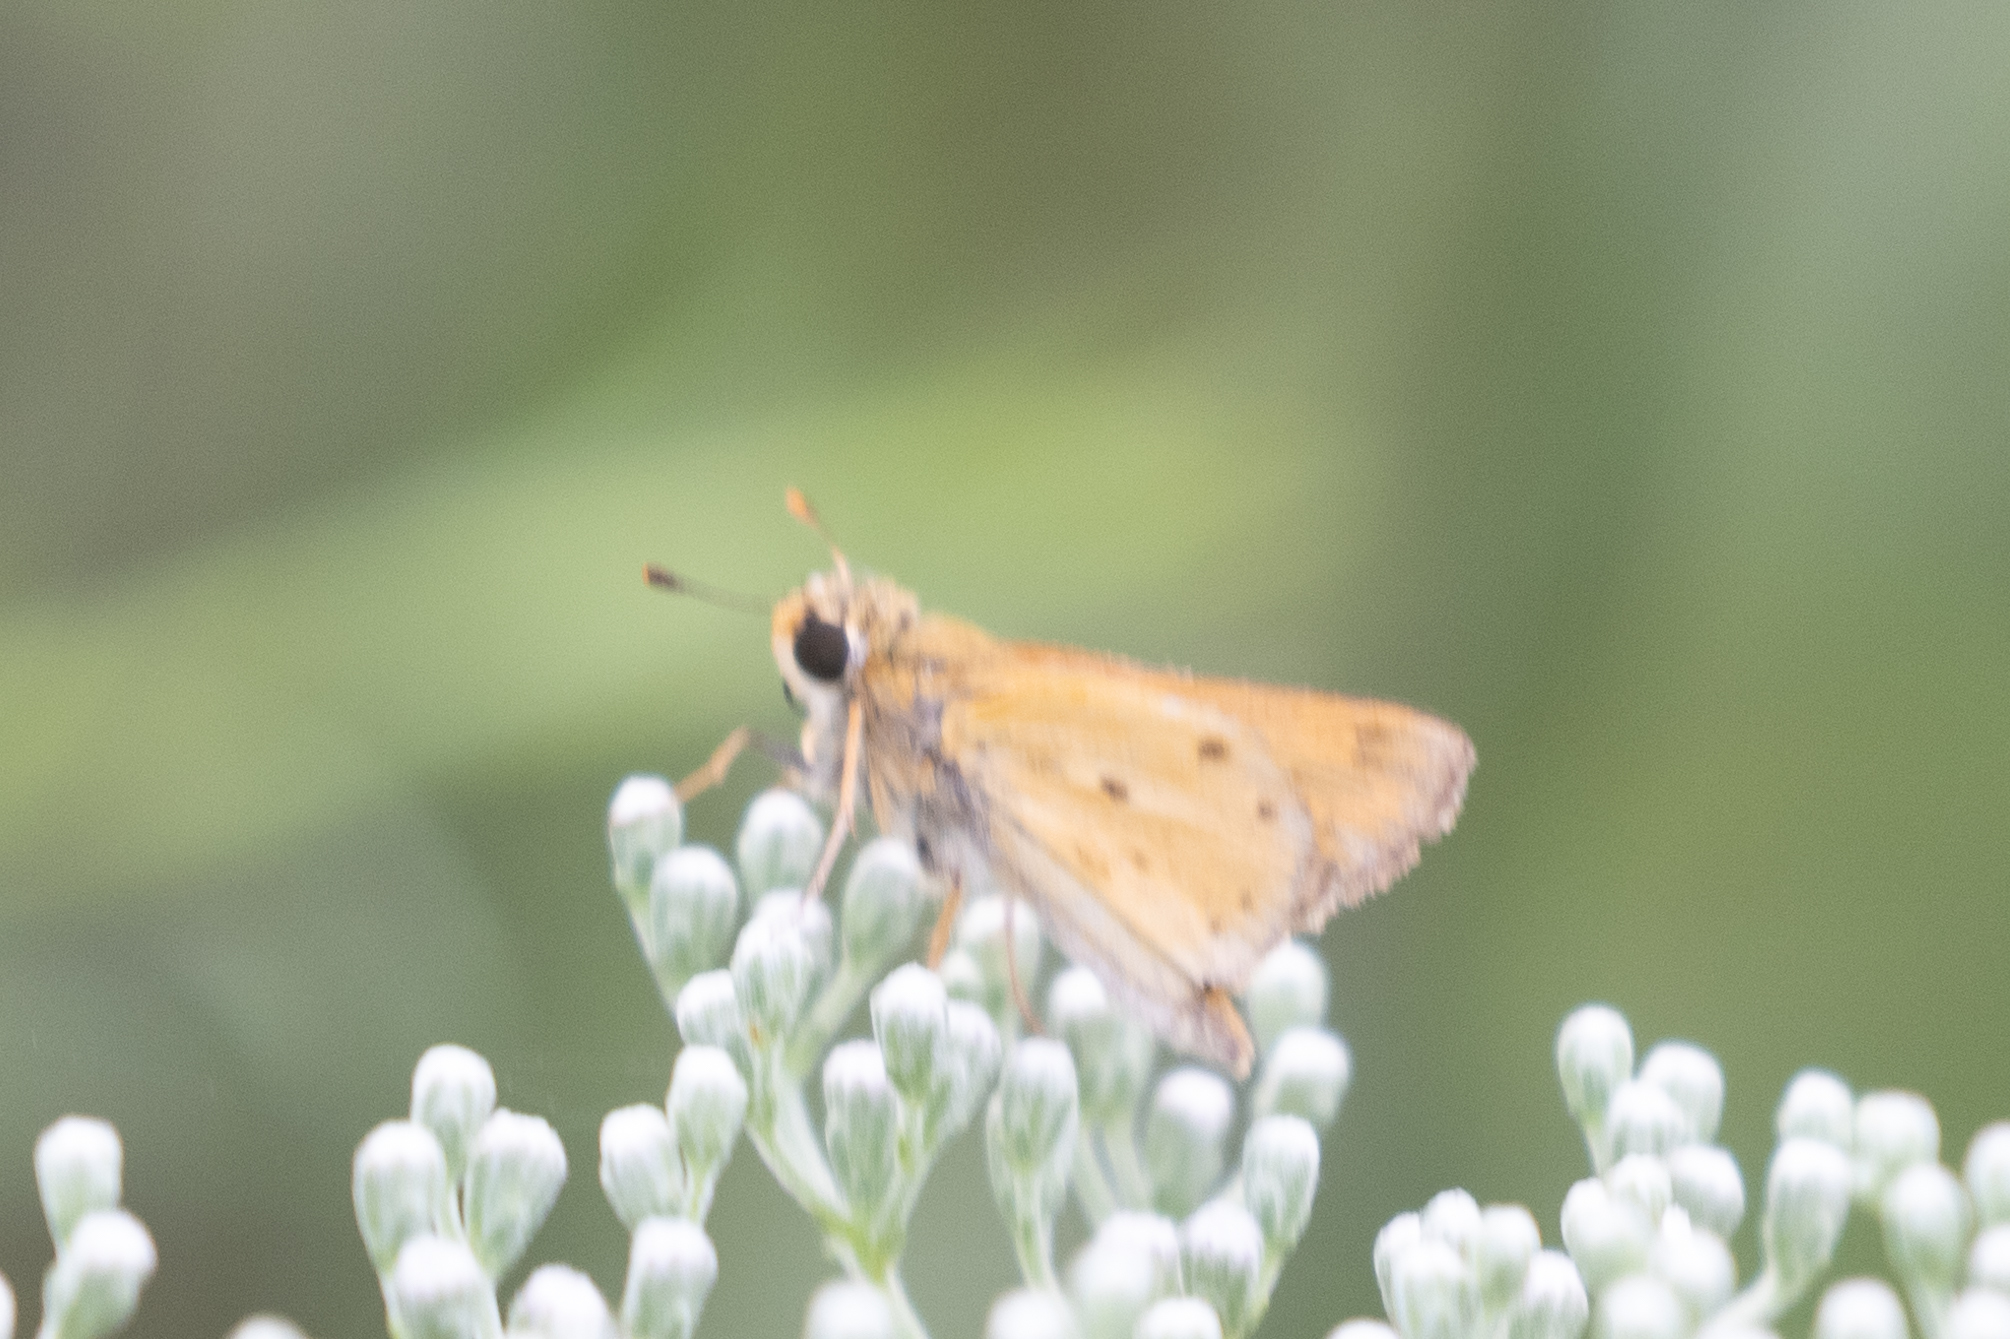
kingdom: Animalia
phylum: Arthropoda
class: Insecta
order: Lepidoptera
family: Hesperiidae
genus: Hylephila
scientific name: Hylephila phyleus
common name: Fiery skipper
